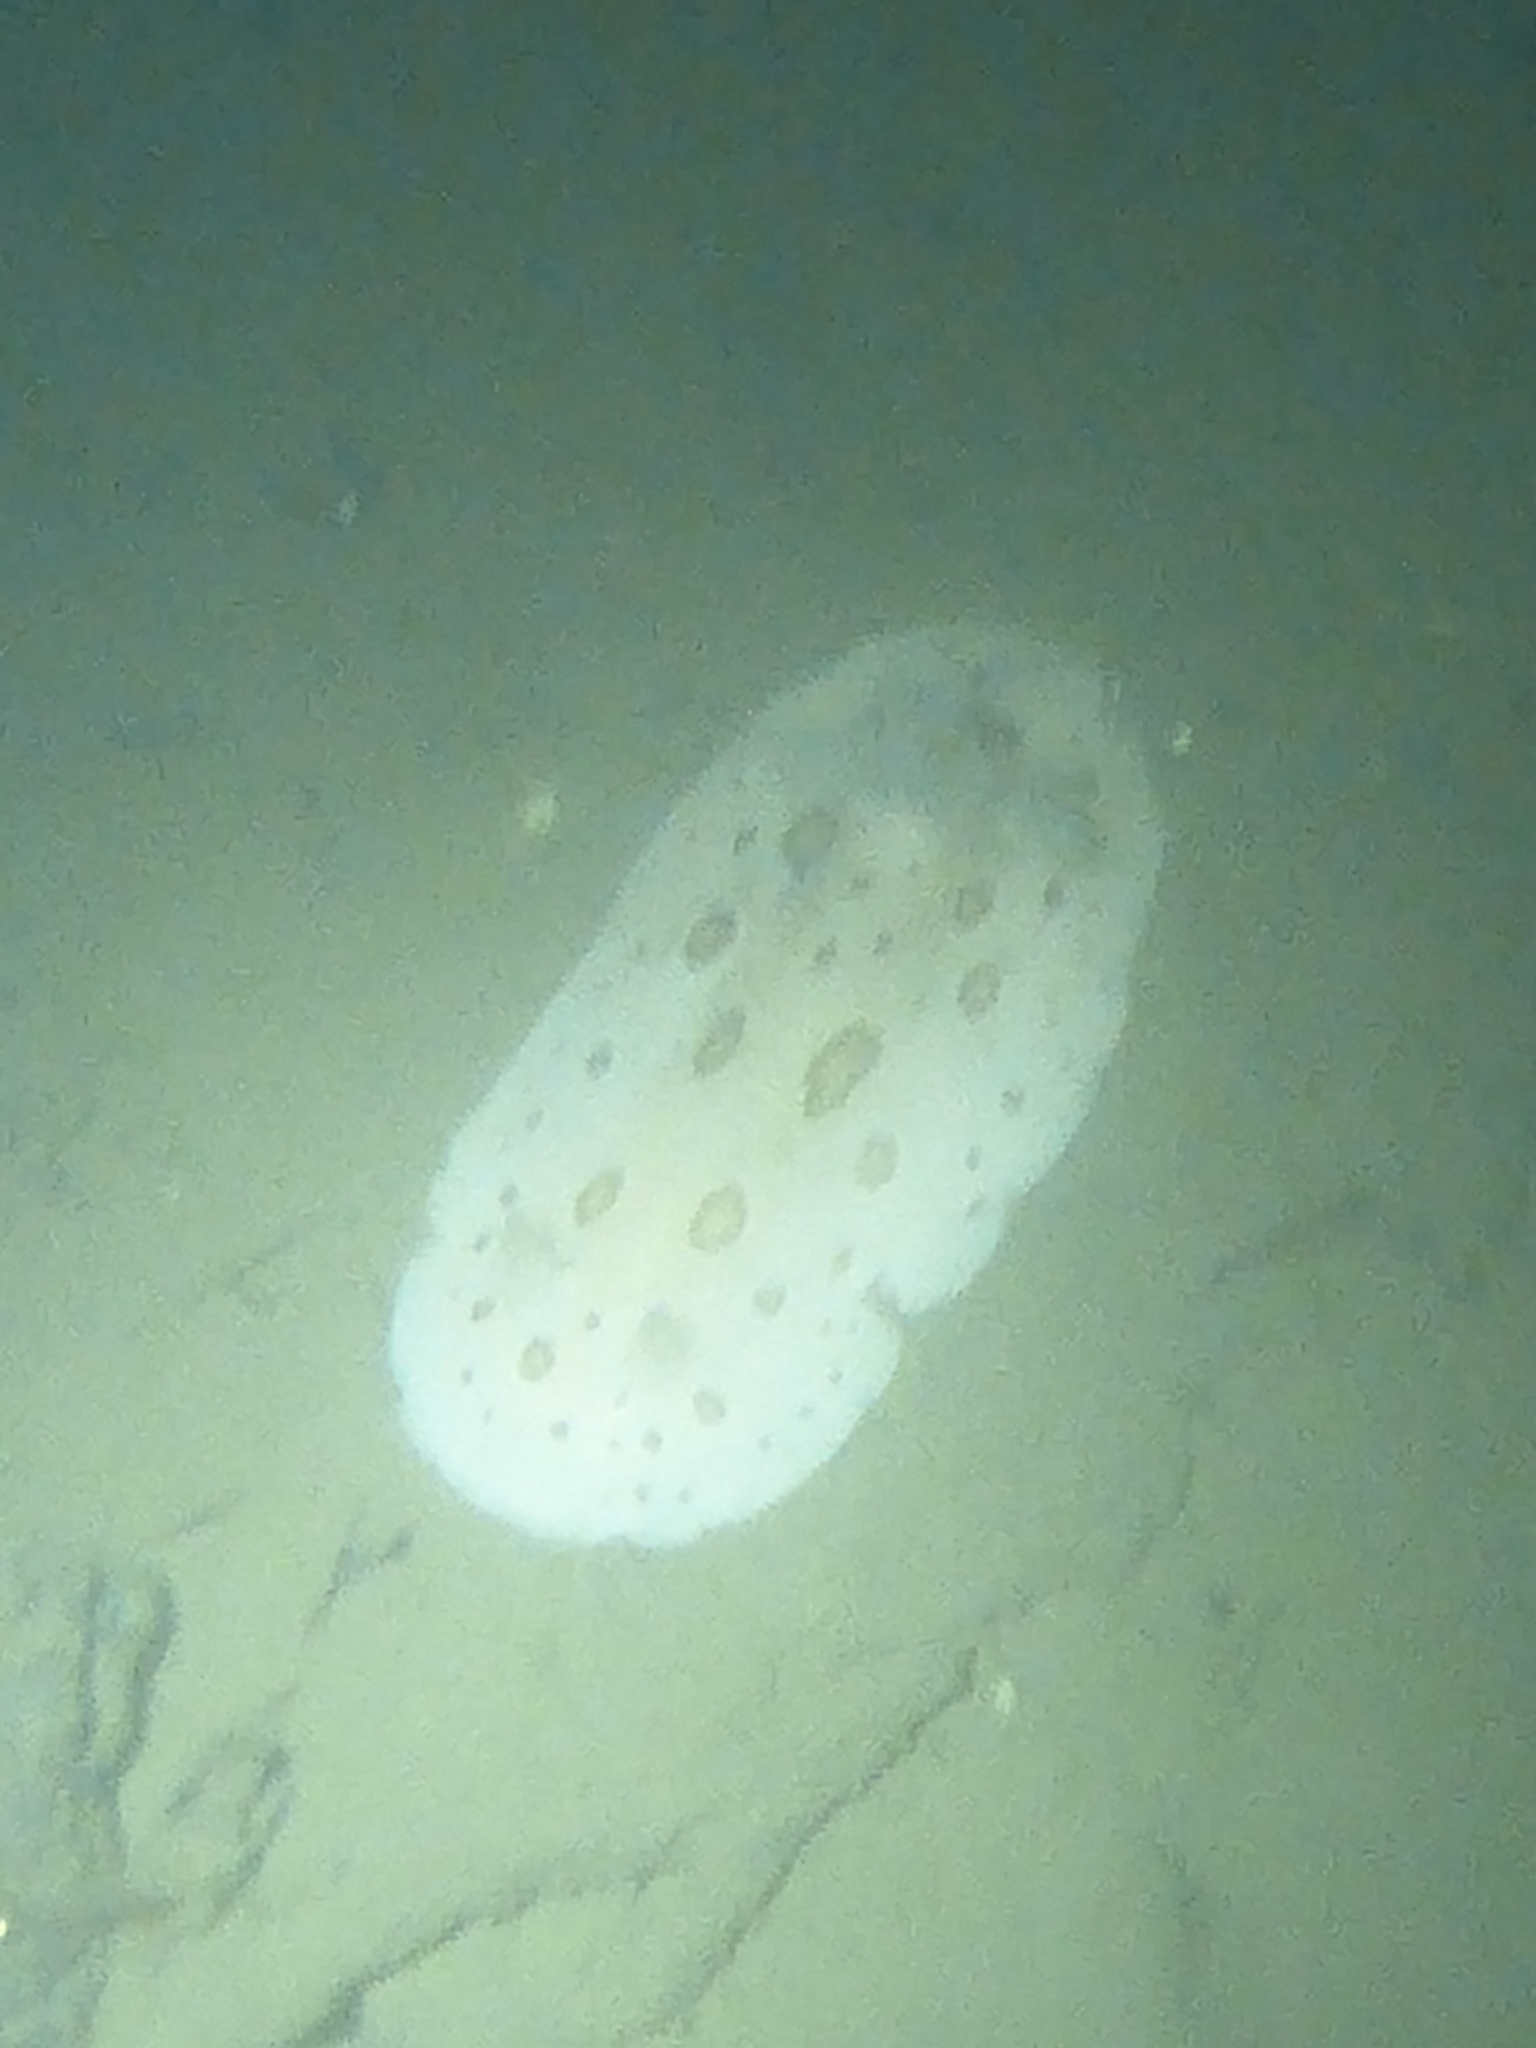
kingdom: Animalia
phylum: Mollusca
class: Gastropoda
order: Nudibranchia
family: Discodorididae
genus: Diaulula
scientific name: Diaulula odonoghuei
